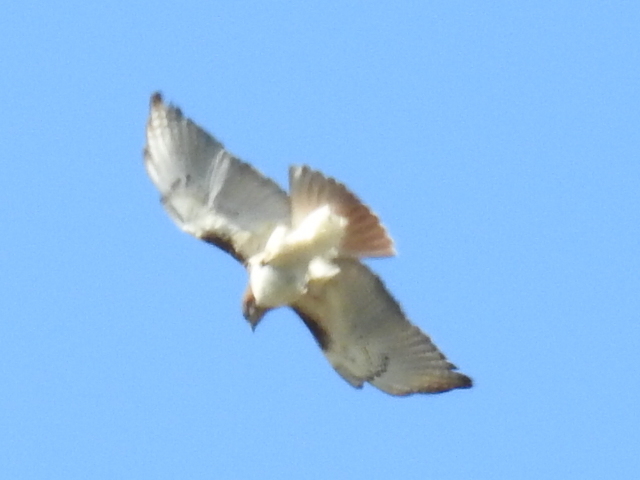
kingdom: Animalia
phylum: Chordata
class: Aves
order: Accipitriformes
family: Accipitridae
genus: Buteo
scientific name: Buteo jamaicensis
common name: Red-tailed hawk
